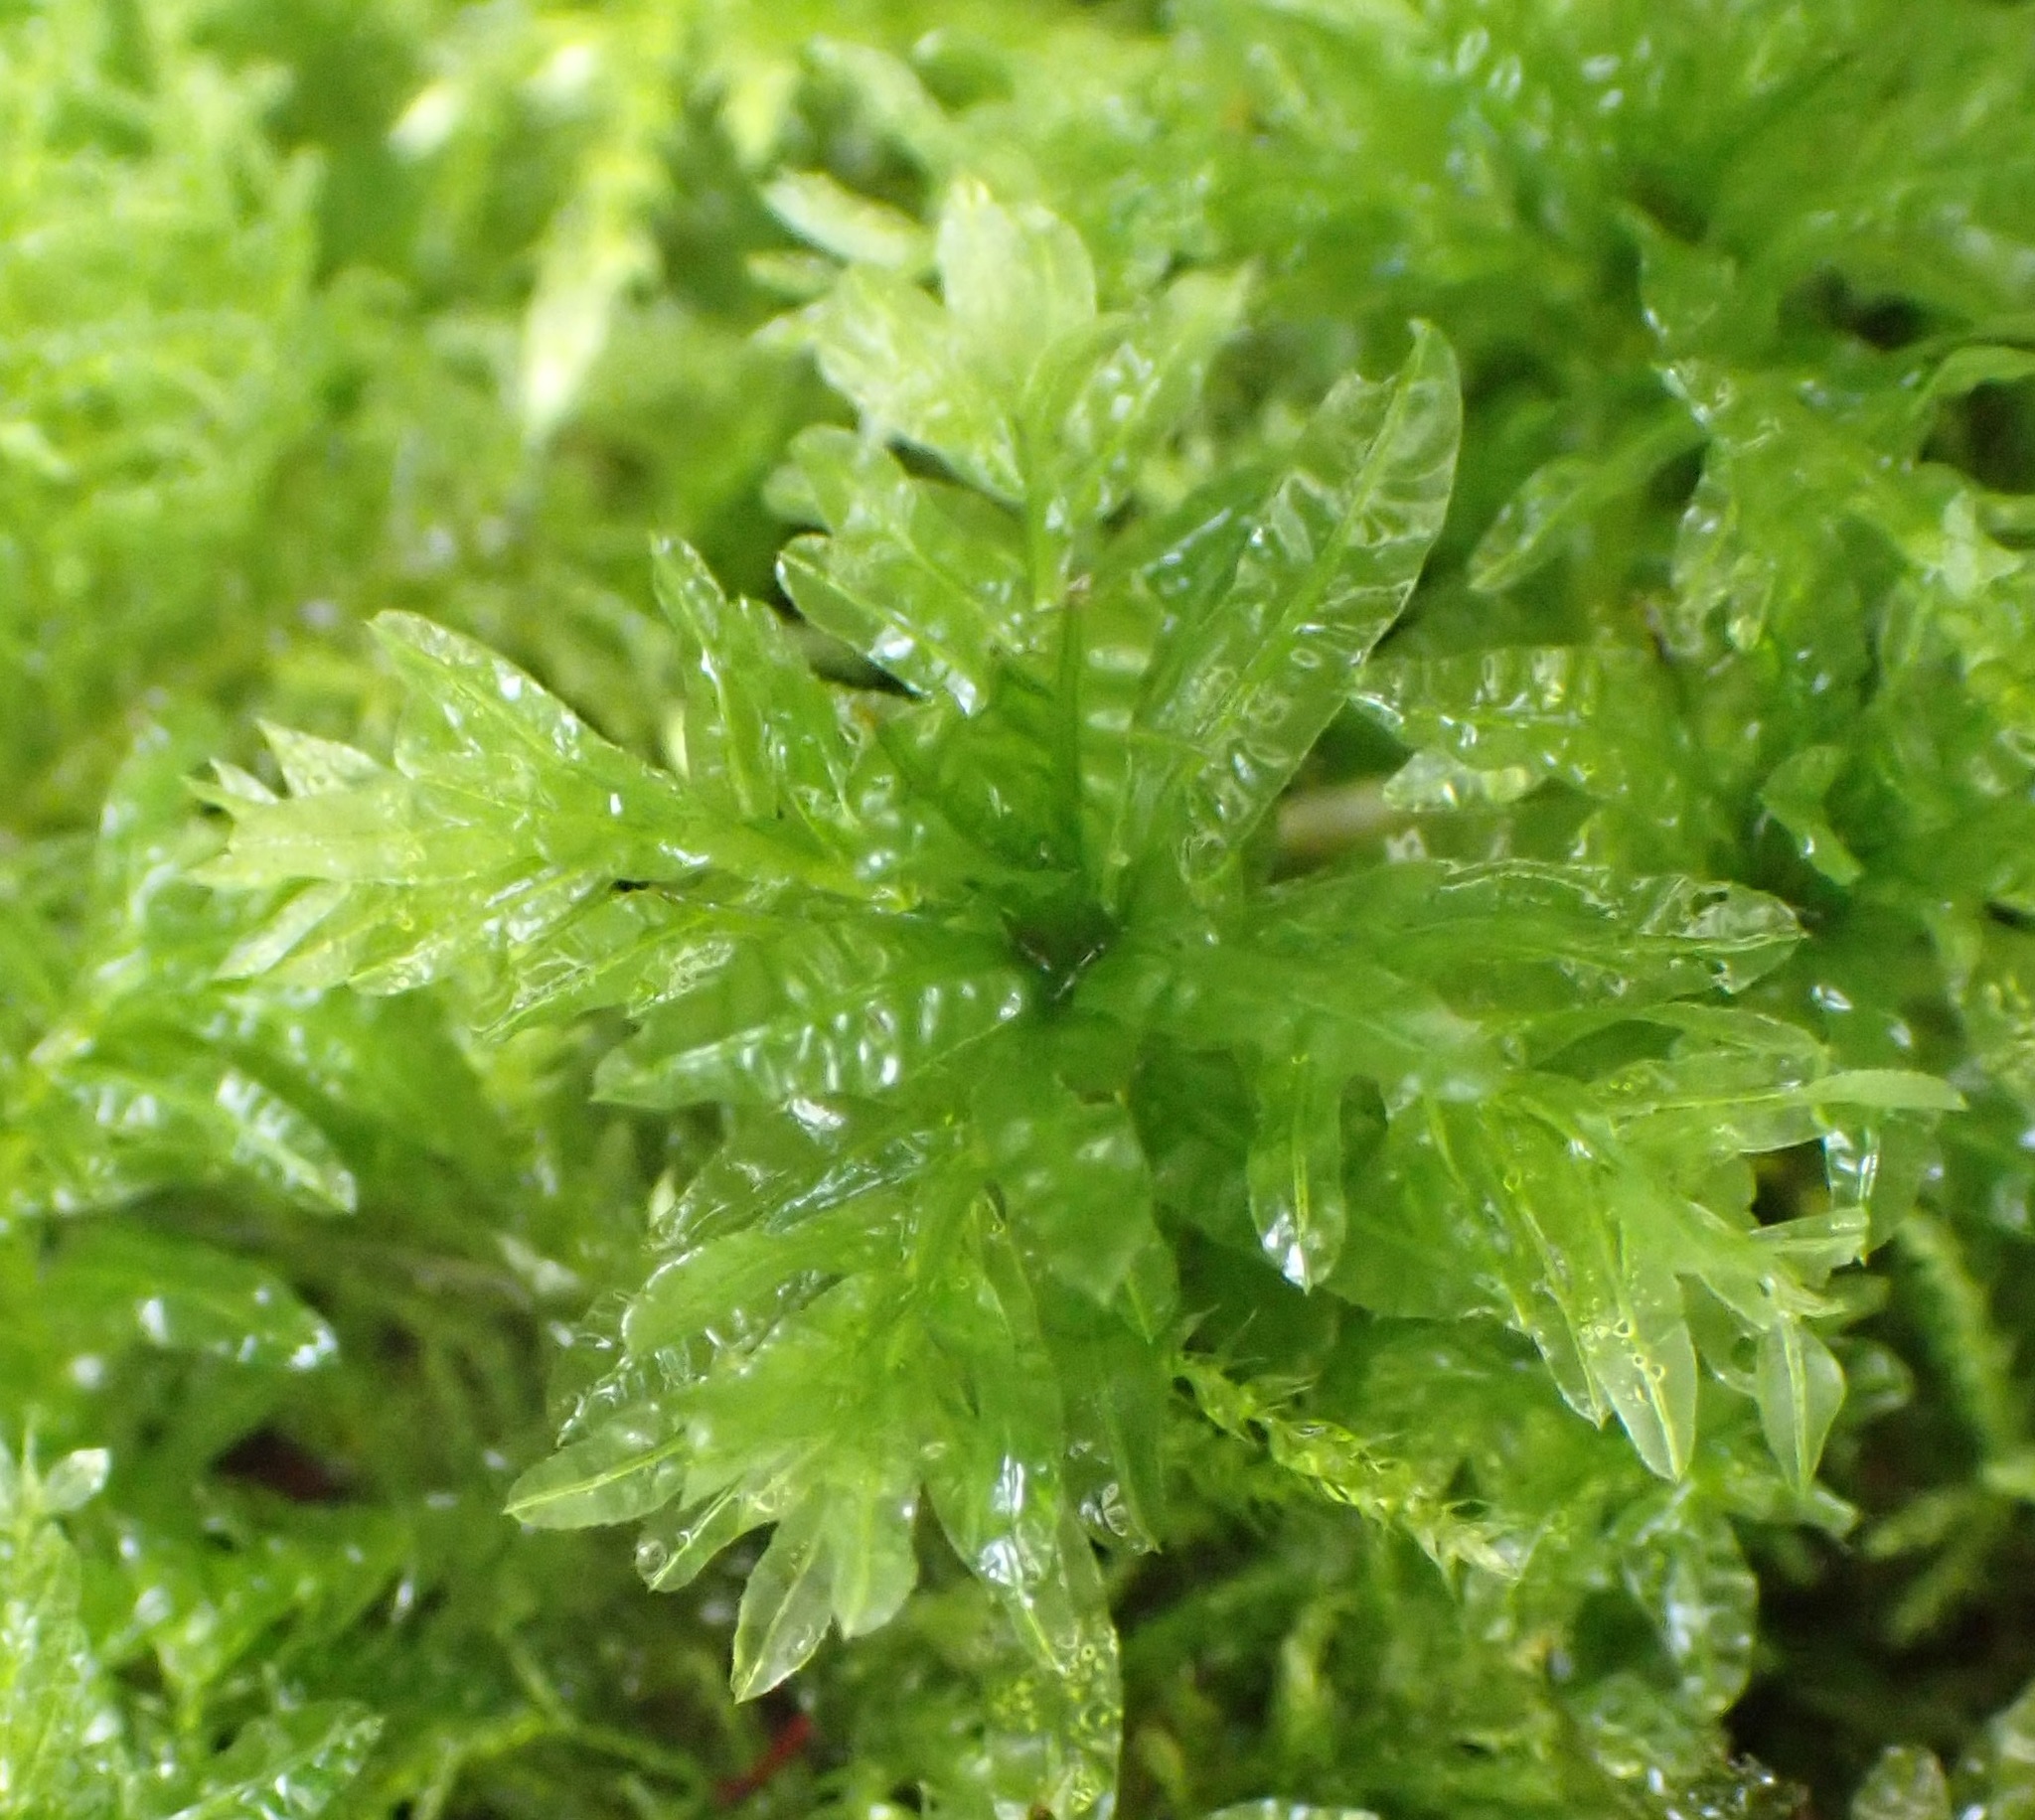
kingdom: Plantae
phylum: Bryophyta
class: Bryopsida
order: Bryales
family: Mniaceae
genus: Plagiomnium
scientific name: Plagiomnium undulatum
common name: Hart's-tongue thyme-moss
